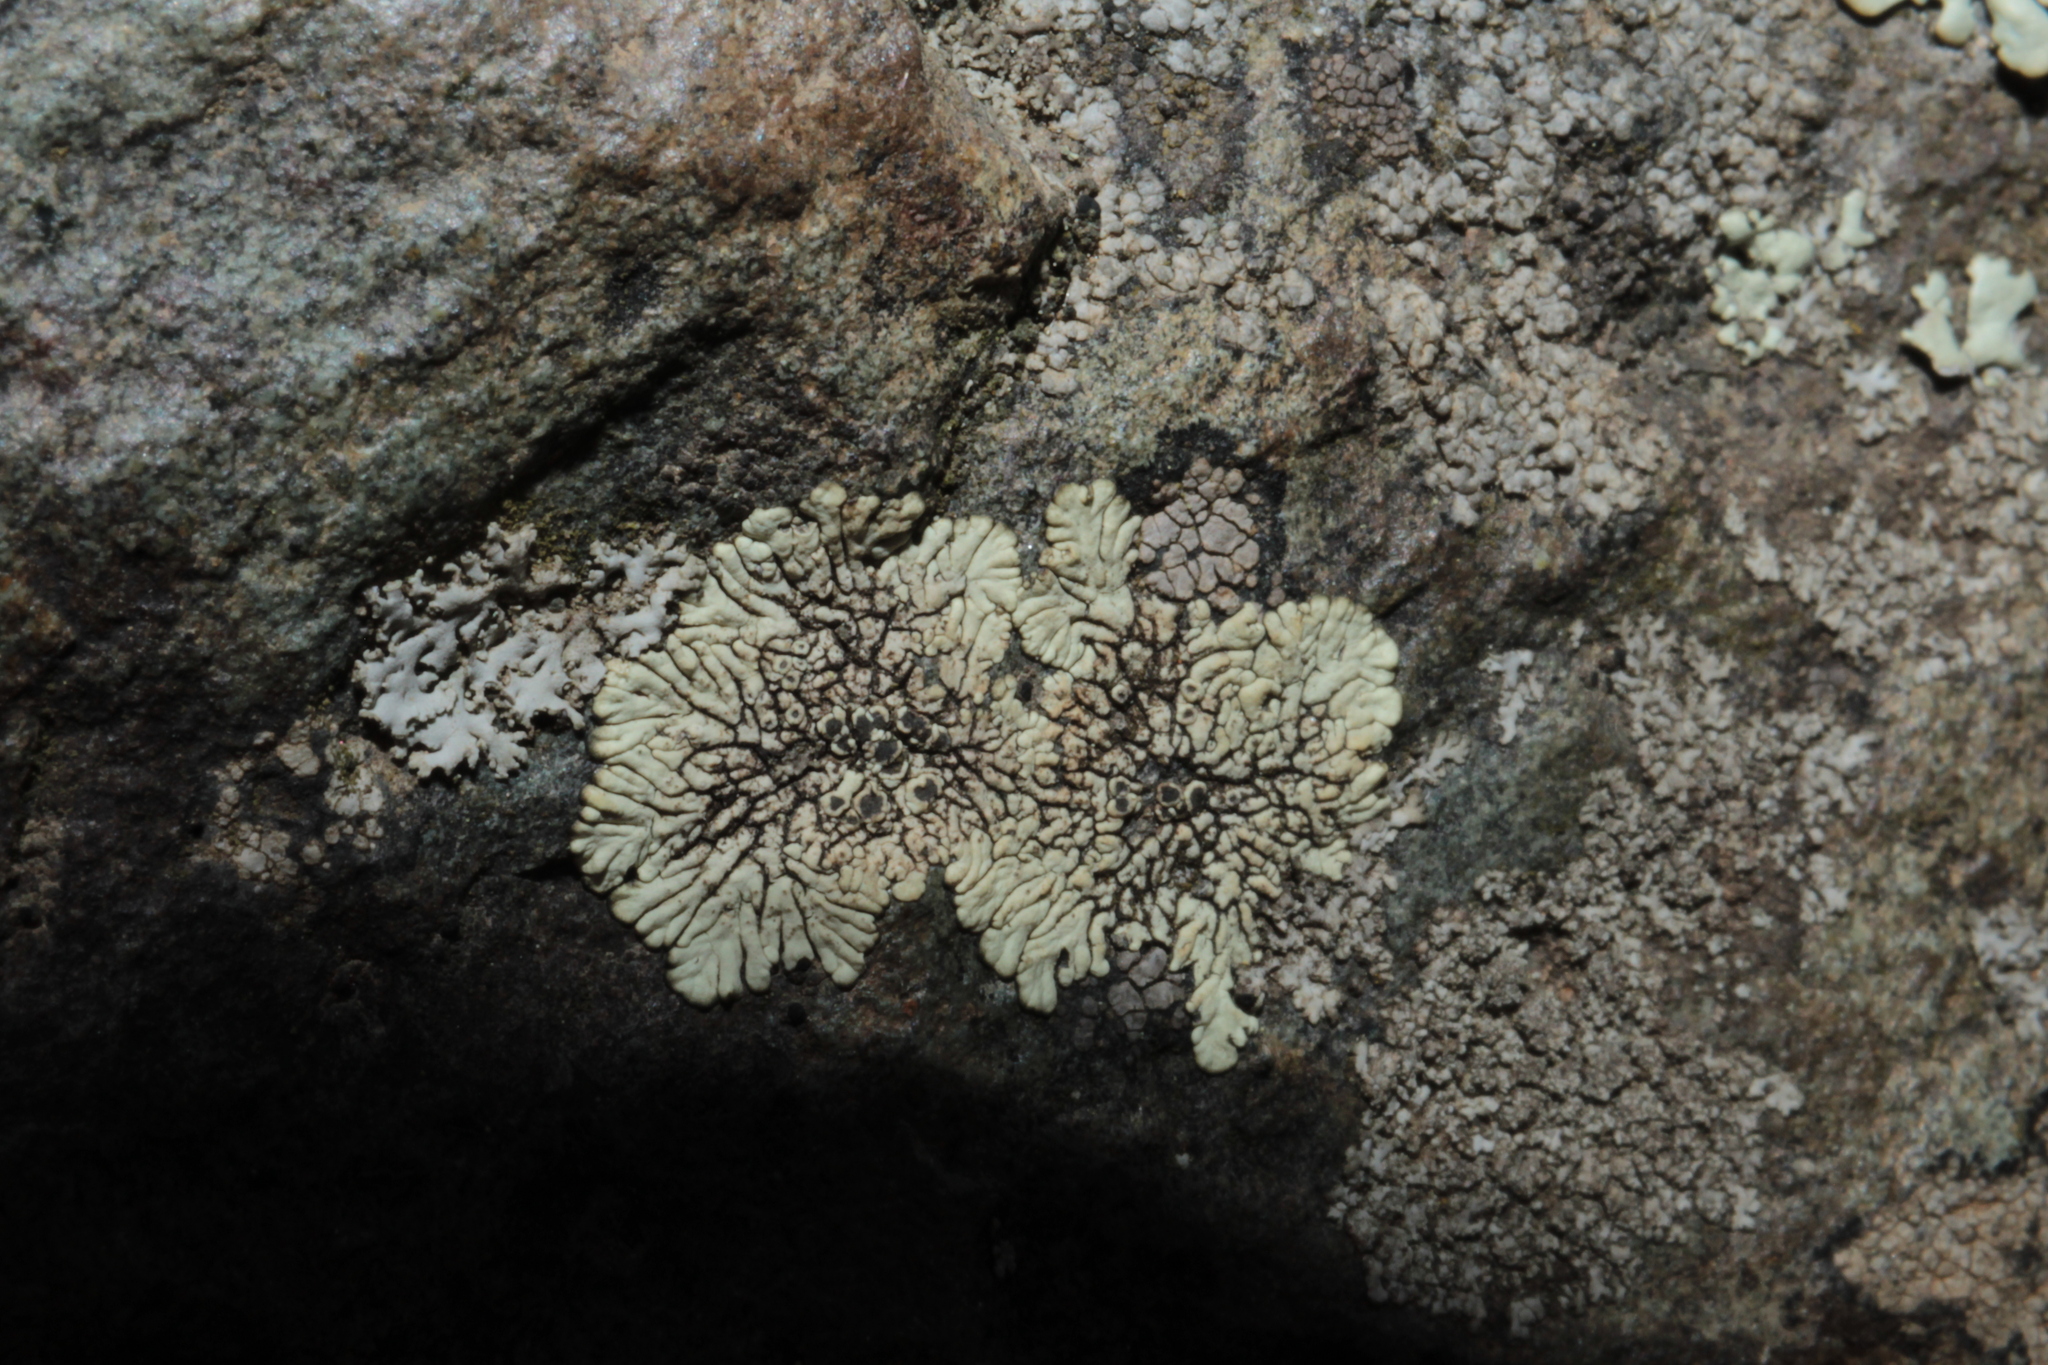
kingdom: Fungi
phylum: Ascomycota
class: Lecanoromycetes
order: Caliciales
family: Caliciaceae
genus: Dimelaena
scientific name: Dimelaena oreina
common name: Golden moonglow lichen
